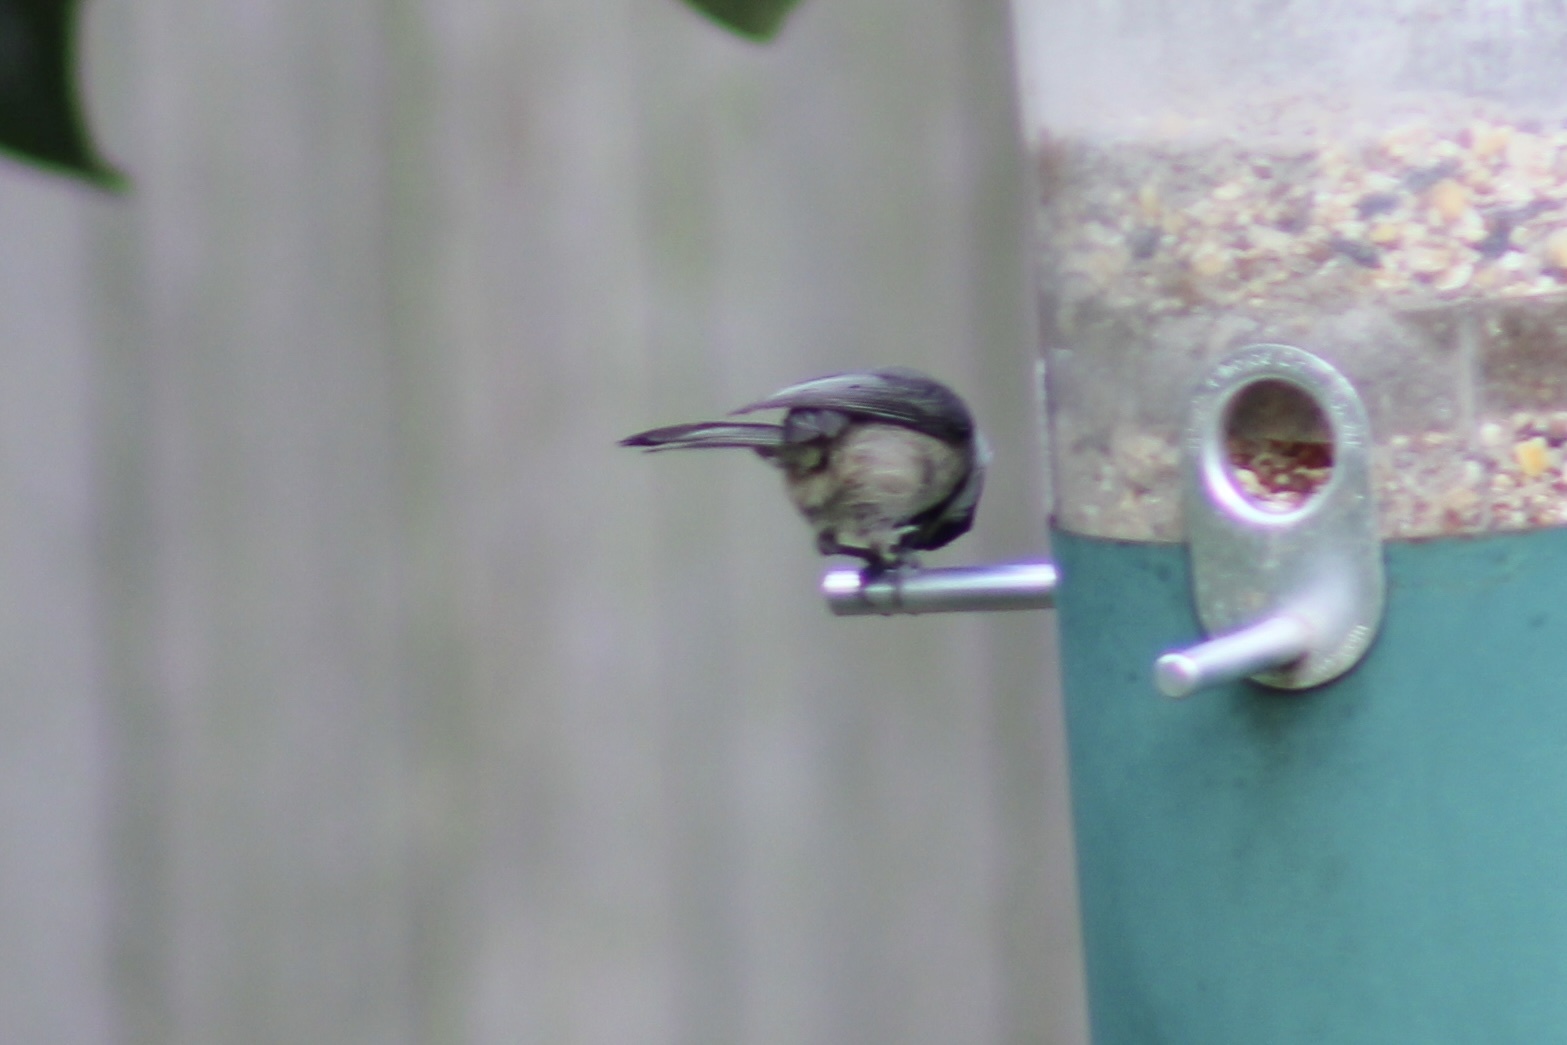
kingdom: Animalia
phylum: Chordata
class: Aves
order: Passeriformes
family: Paridae
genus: Poecile
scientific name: Poecile carolinensis
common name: Carolina chickadee
